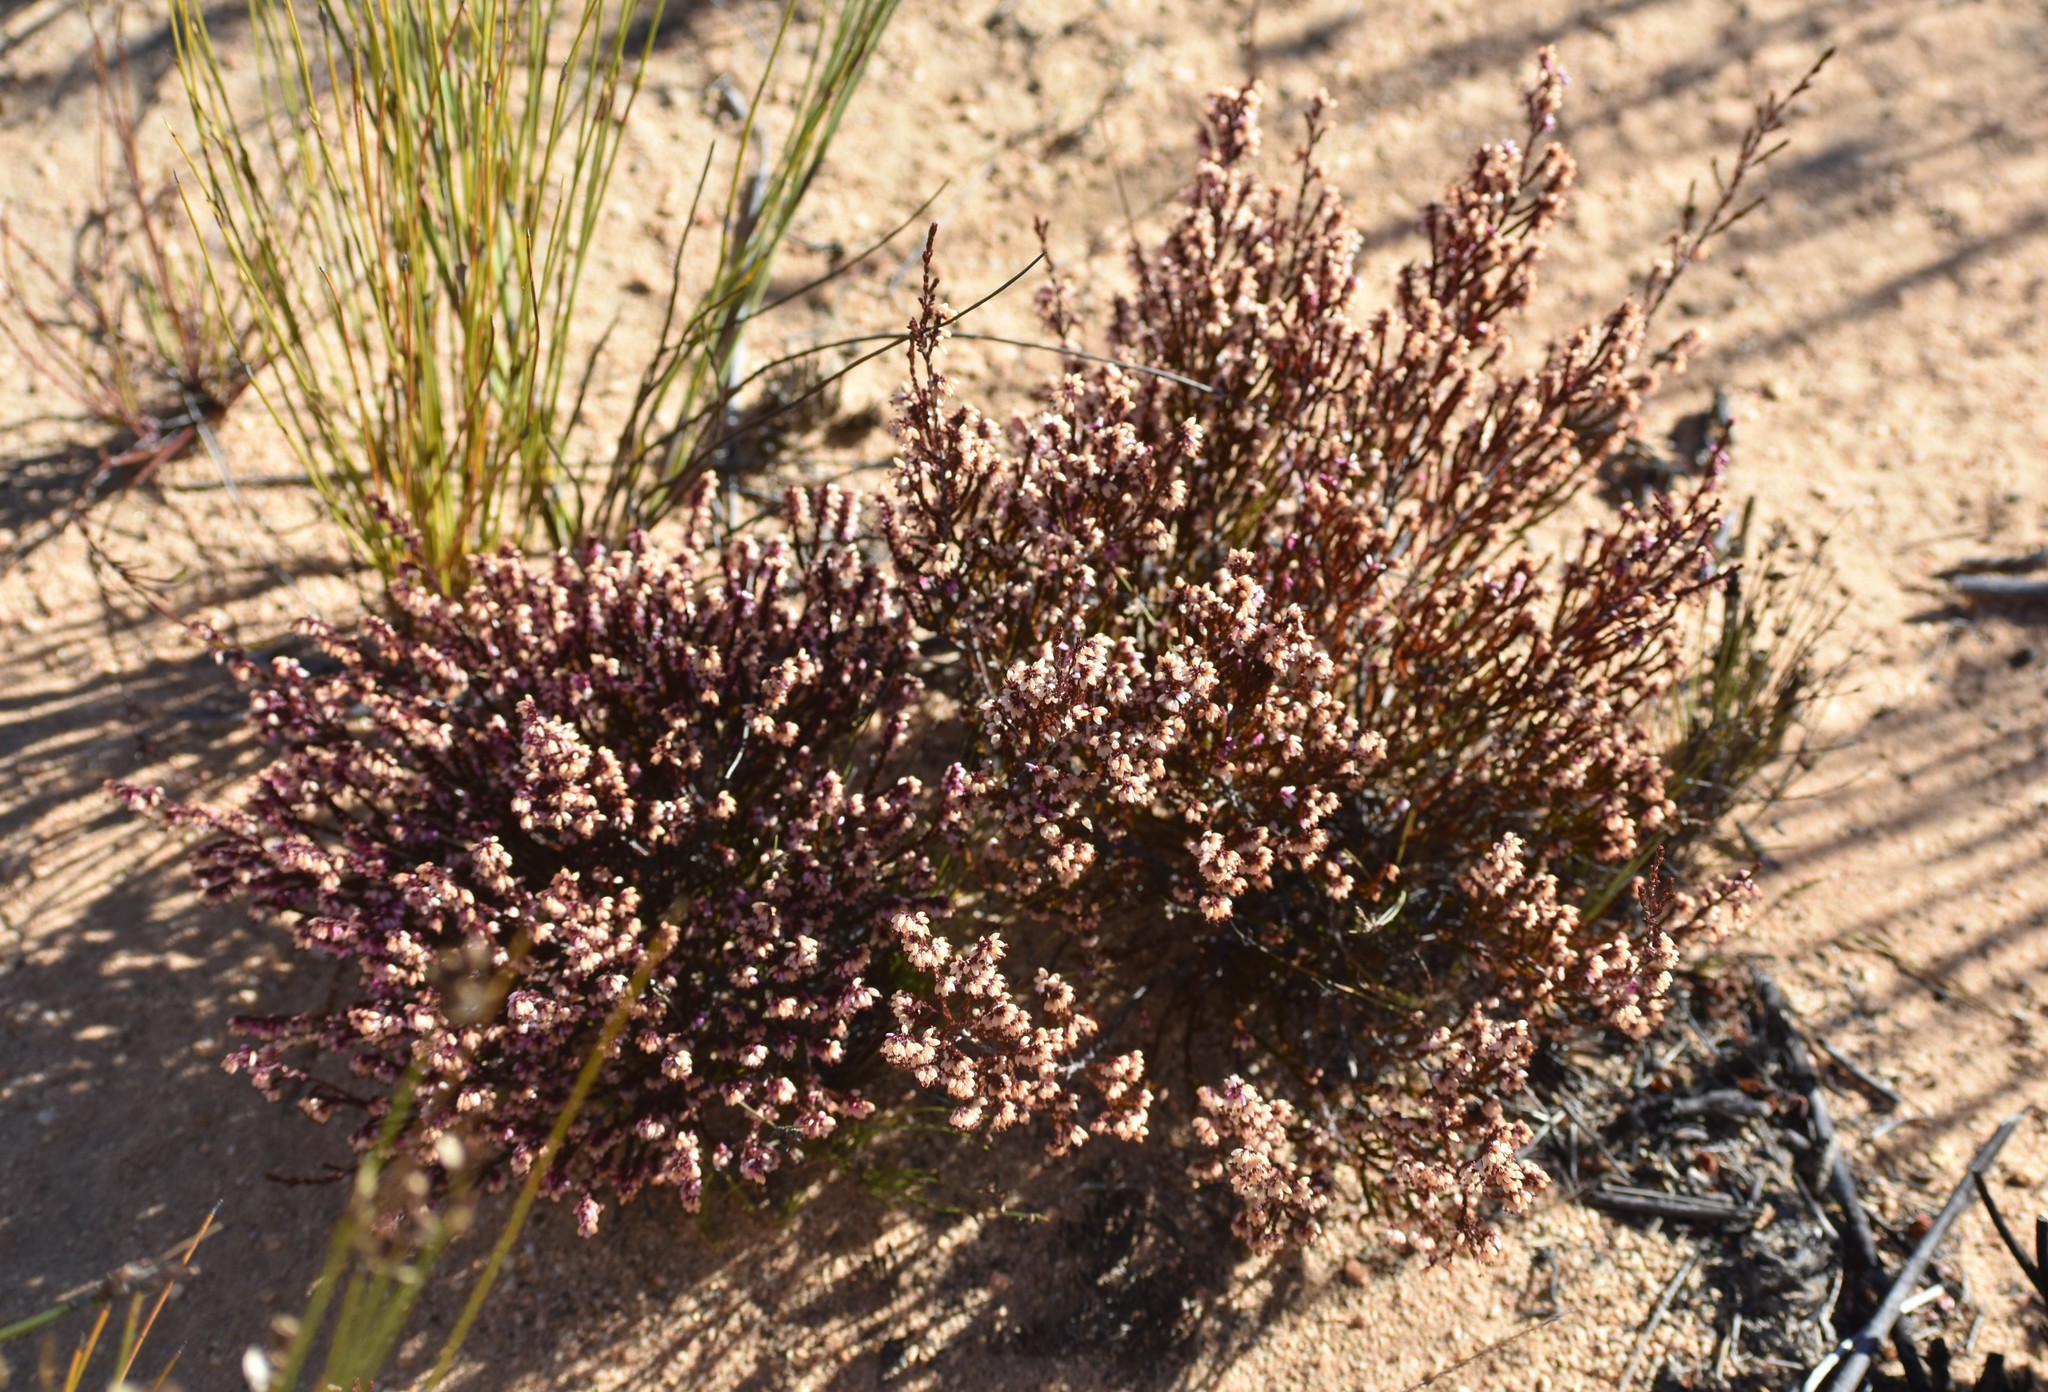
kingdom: Plantae
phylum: Tracheophyta
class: Magnoliopsida
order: Ericales
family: Ericaceae
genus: Erica
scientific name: Erica rosacea
